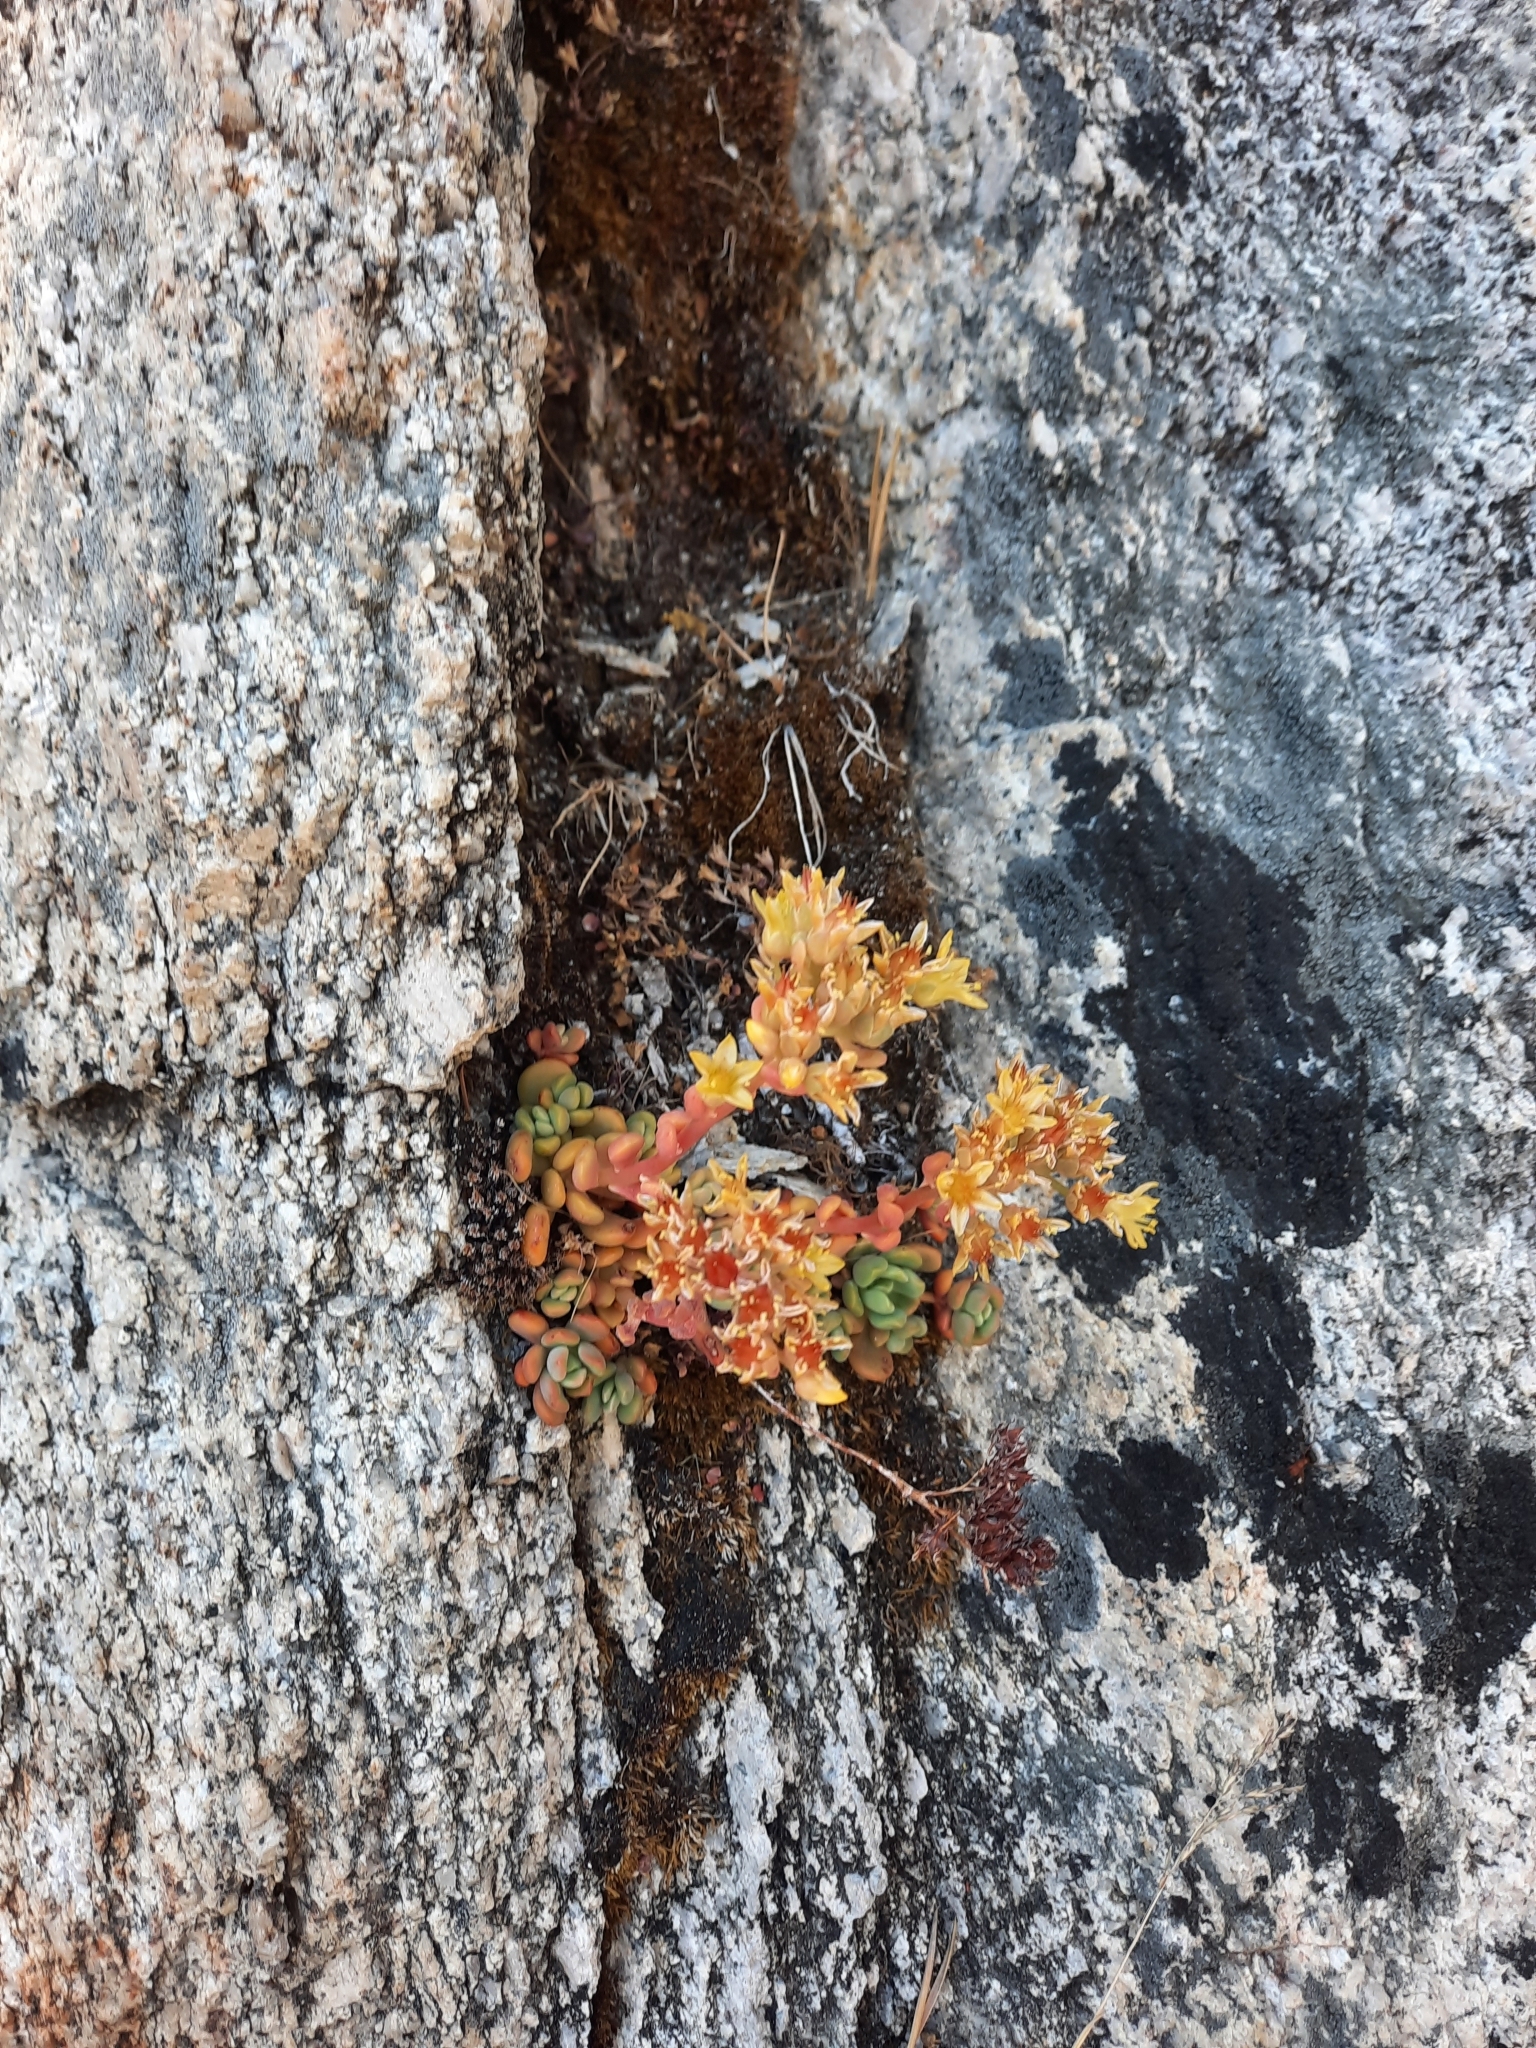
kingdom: Plantae
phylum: Tracheophyta
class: Magnoliopsida
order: Saxifragales
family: Crassulaceae
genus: Sedum
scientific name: Sedum obtusatum
